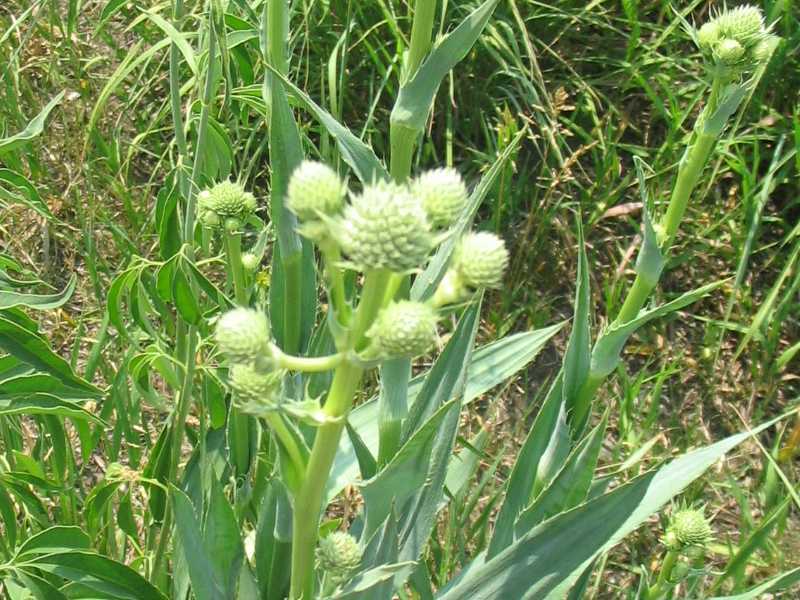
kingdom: Plantae
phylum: Tracheophyta
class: Magnoliopsida
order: Apiales
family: Apiaceae
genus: Eryngium
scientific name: Eryngium yuccifolium
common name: Button eryngo
